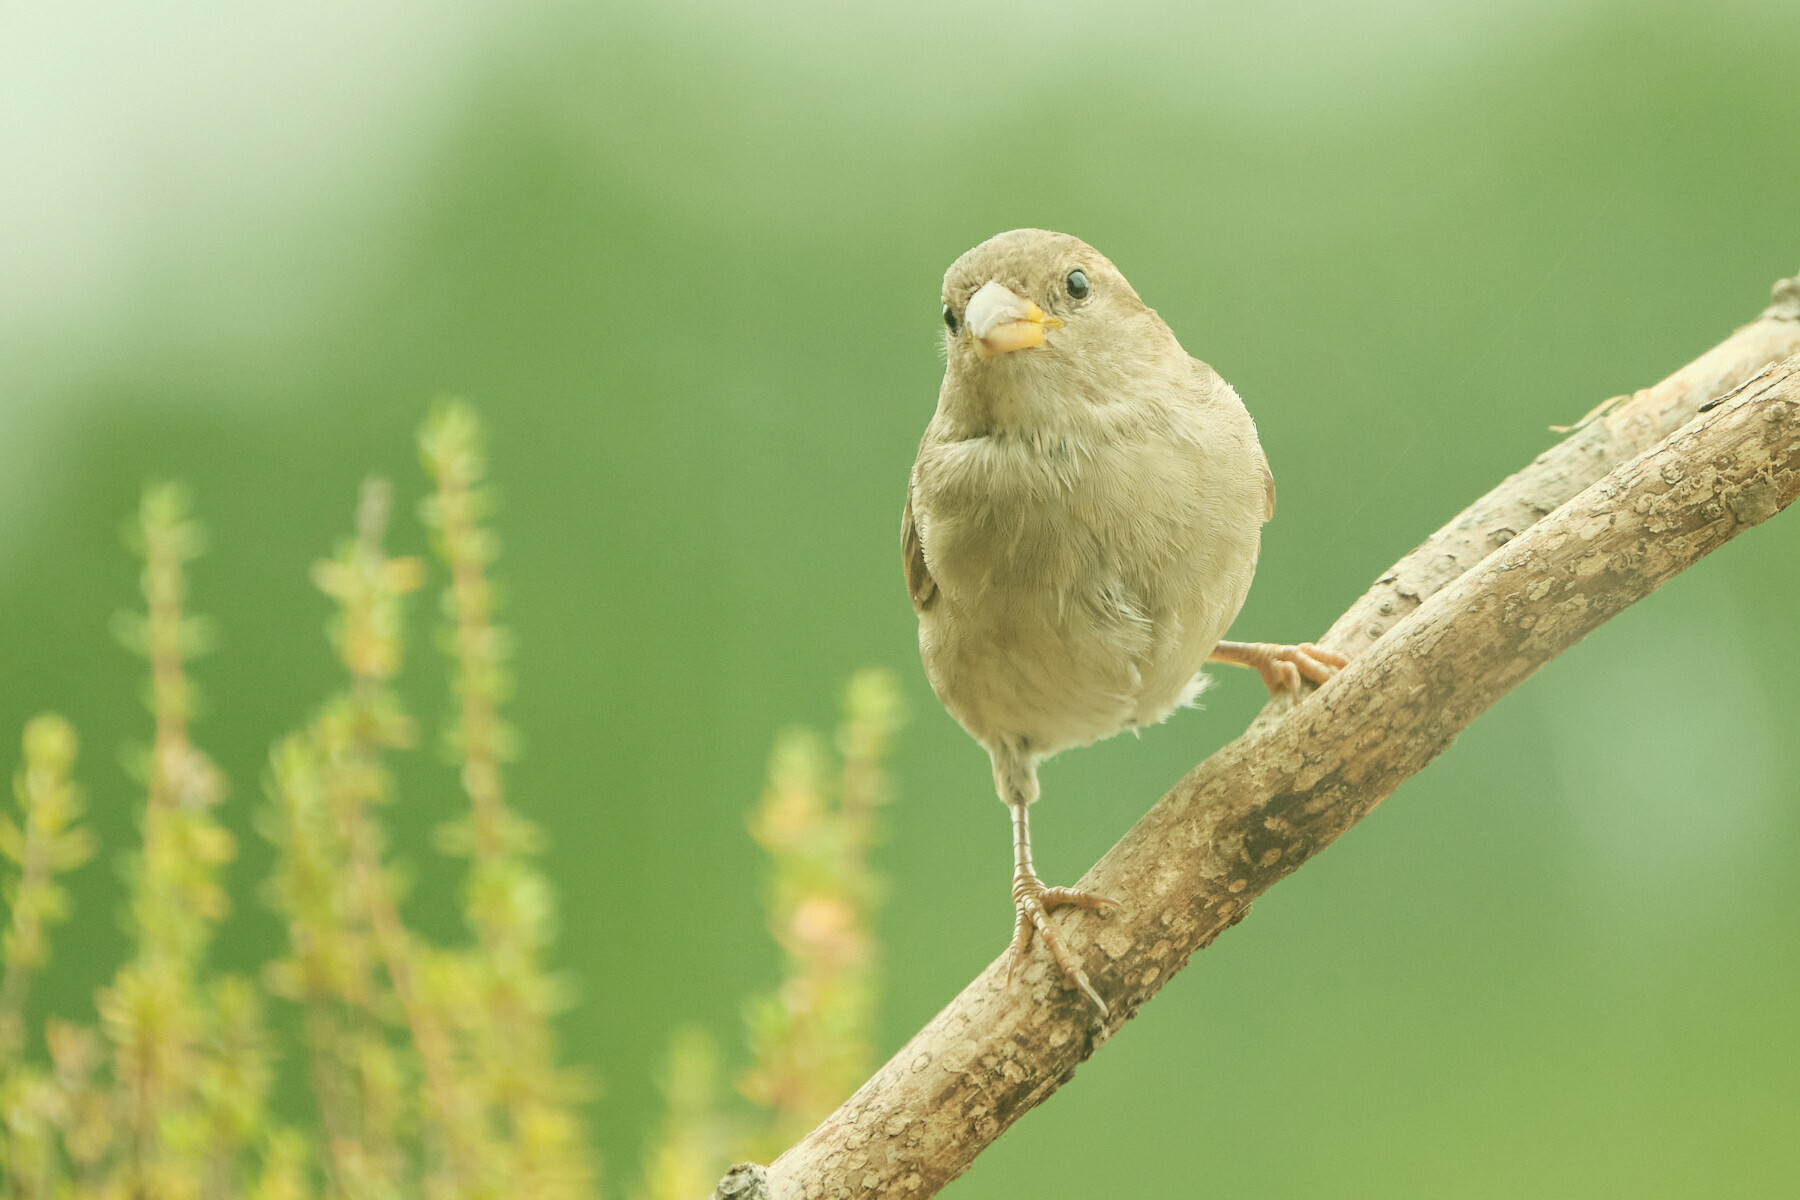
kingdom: Animalia
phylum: Chordata
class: Aves
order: Passeriformes
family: Passeridae
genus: Passer
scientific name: Passer domesticus
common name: House sparrow
